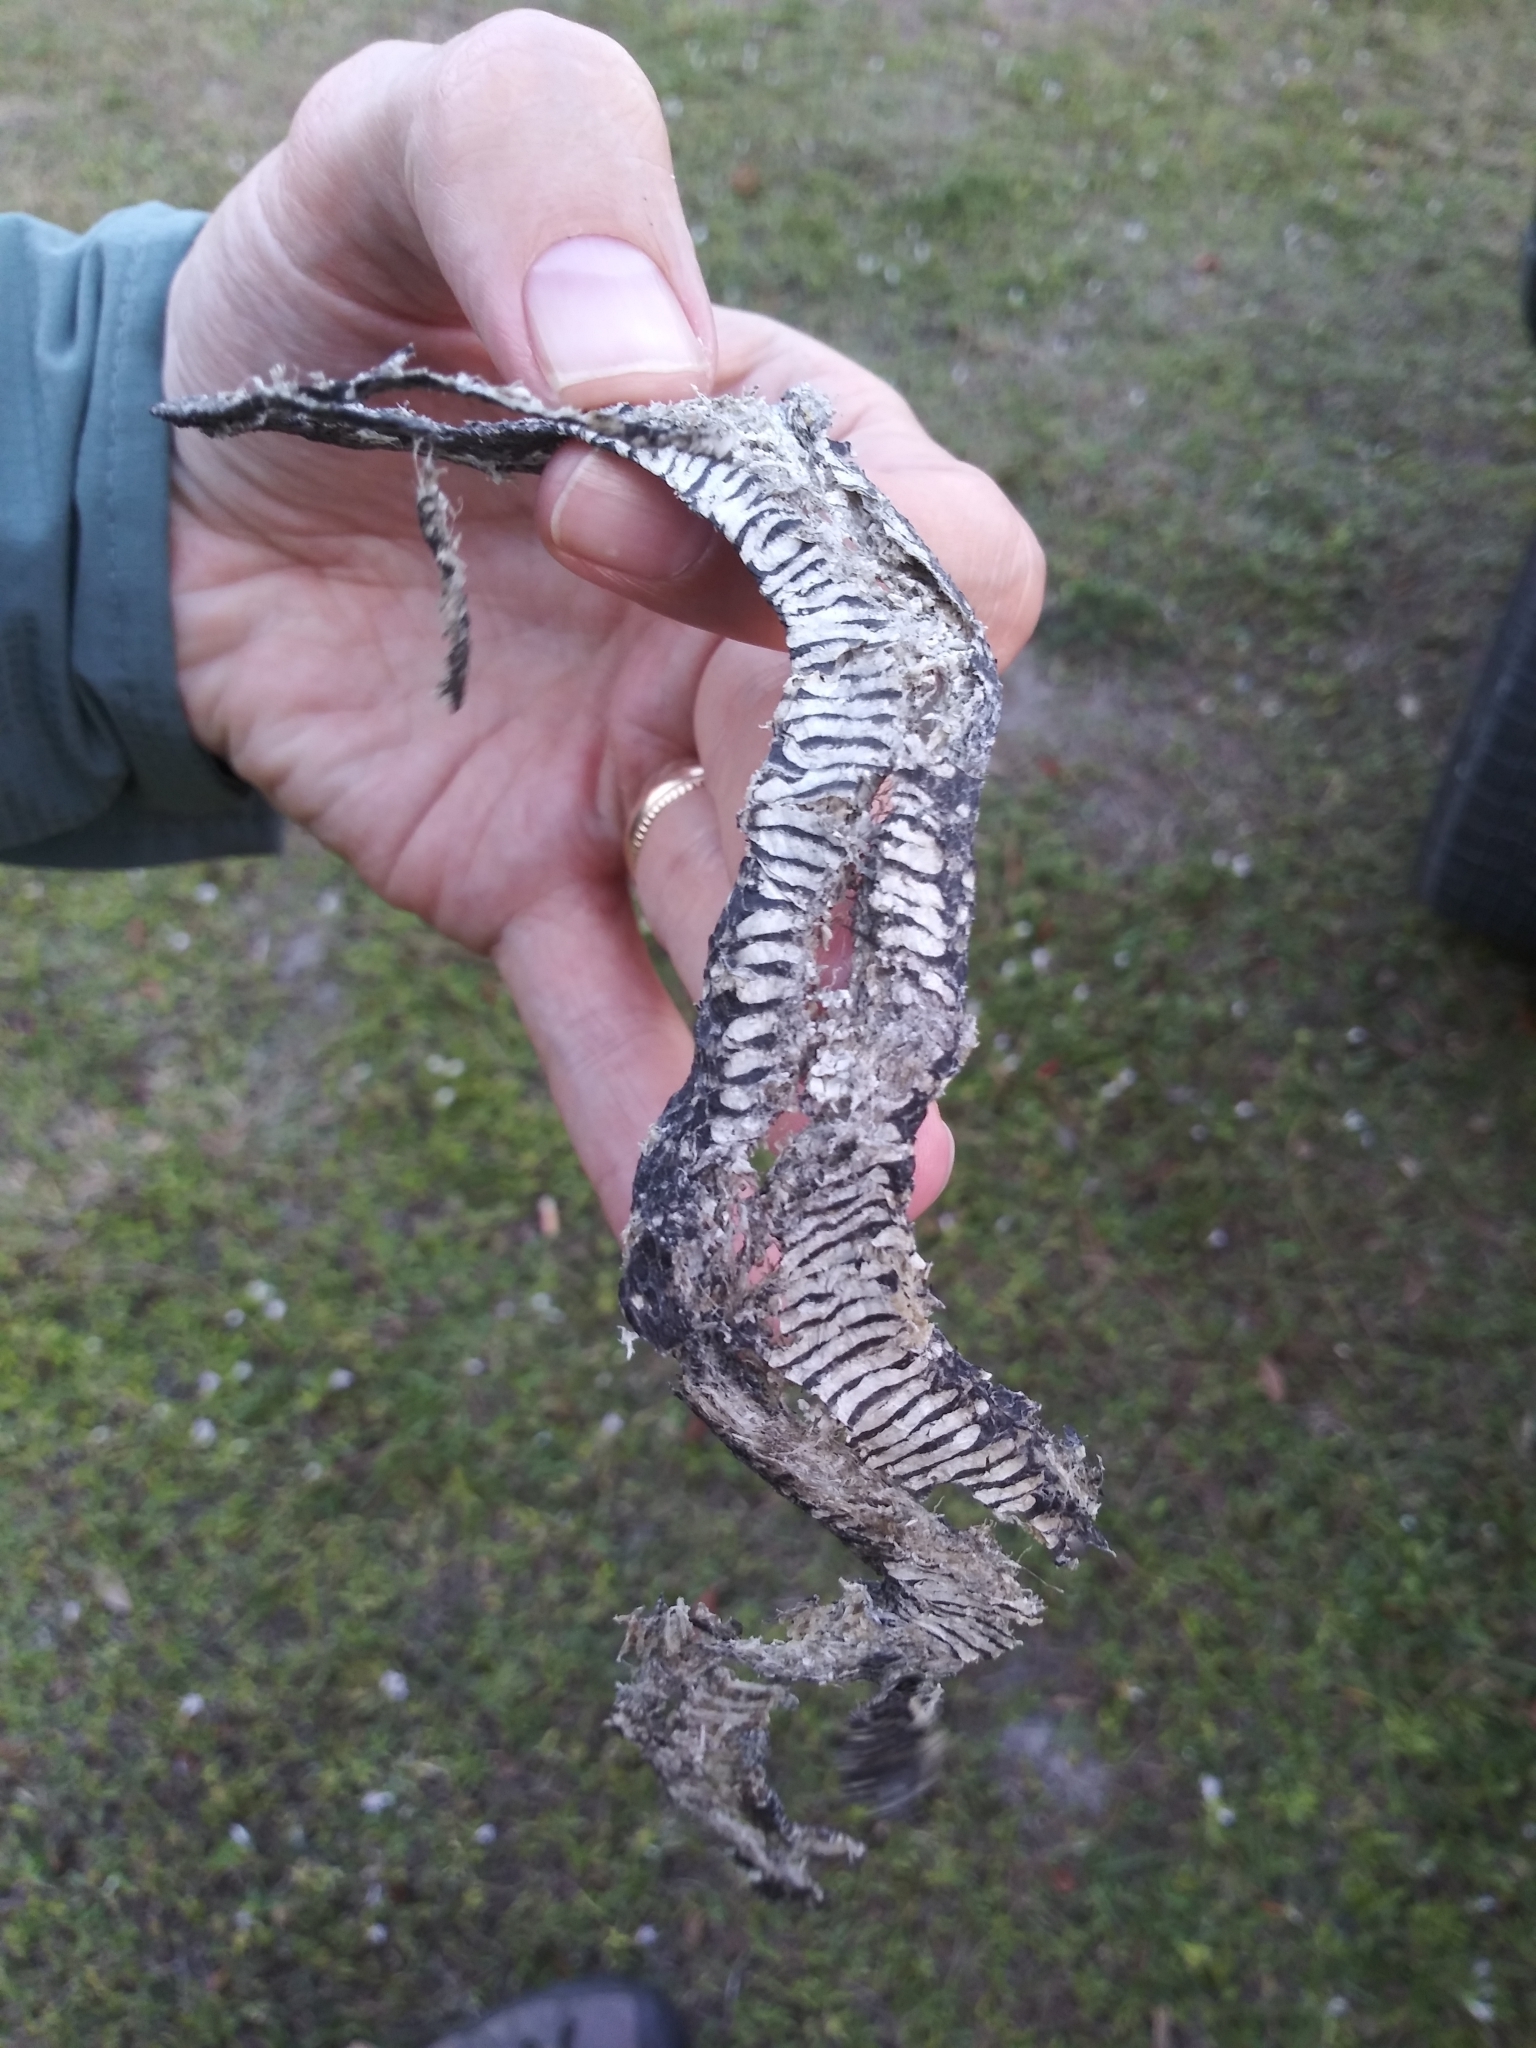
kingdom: Animalia
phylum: Chordata
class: Squamata
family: Colubridae
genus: Nerodia
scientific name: Nerodia fasciata
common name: Southern water snake
